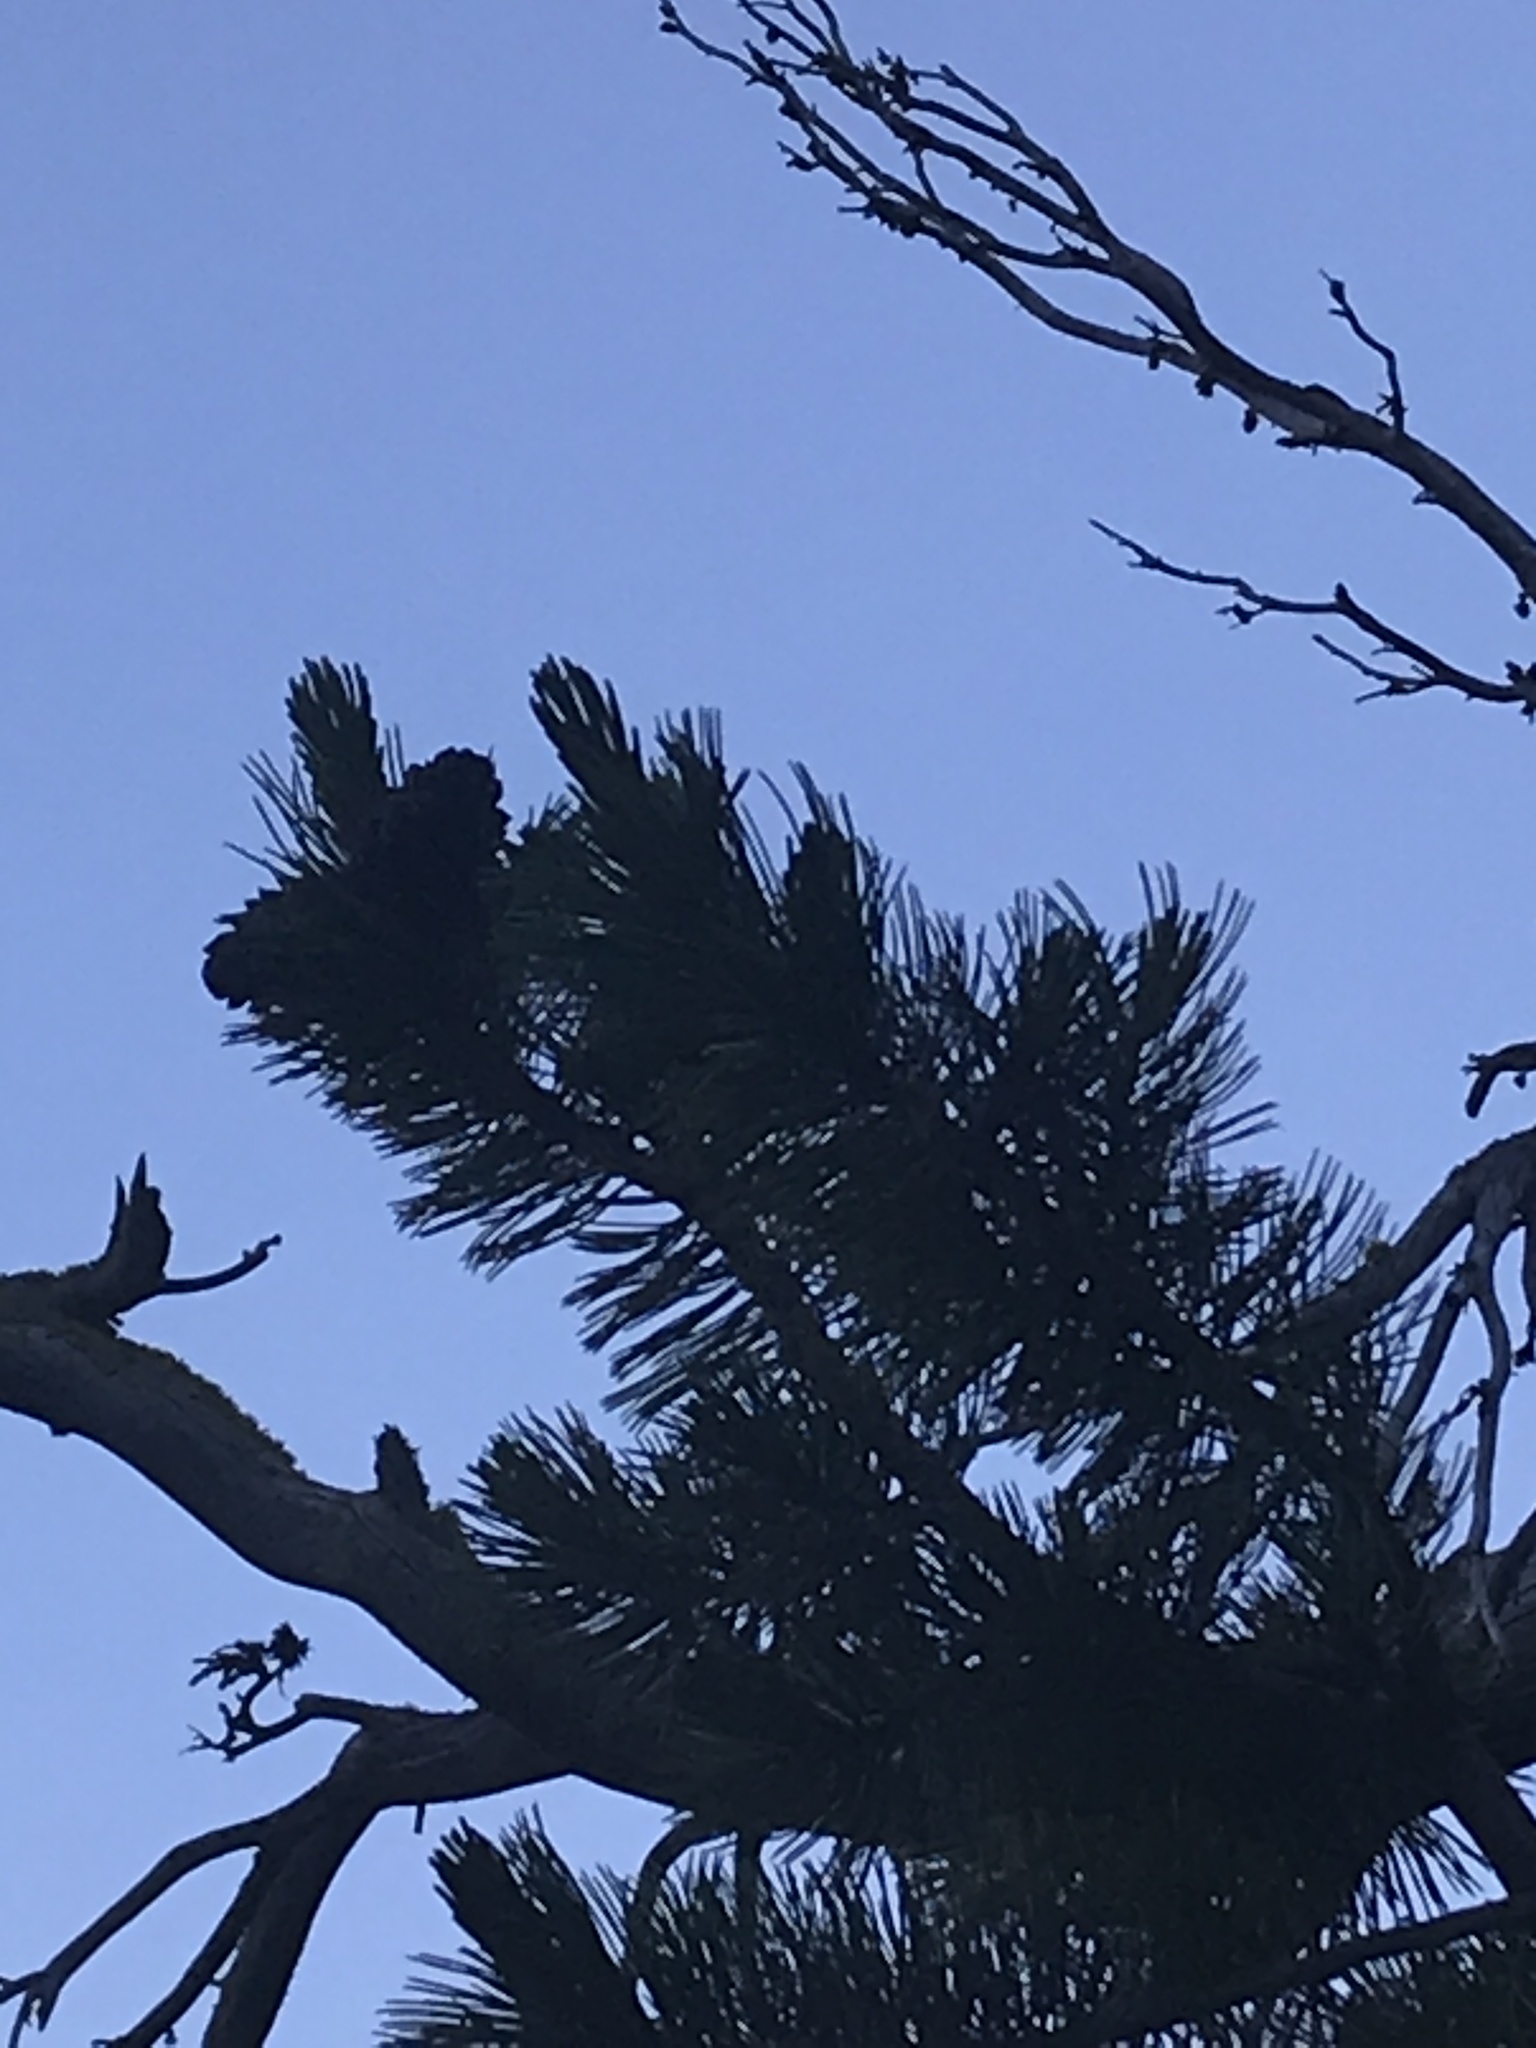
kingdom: Plantae
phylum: Tracheophyta
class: Pinopsida
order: Pinales
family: Pinaceae
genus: Pinus
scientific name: Pinus albicaulis
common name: Whitebark pine
